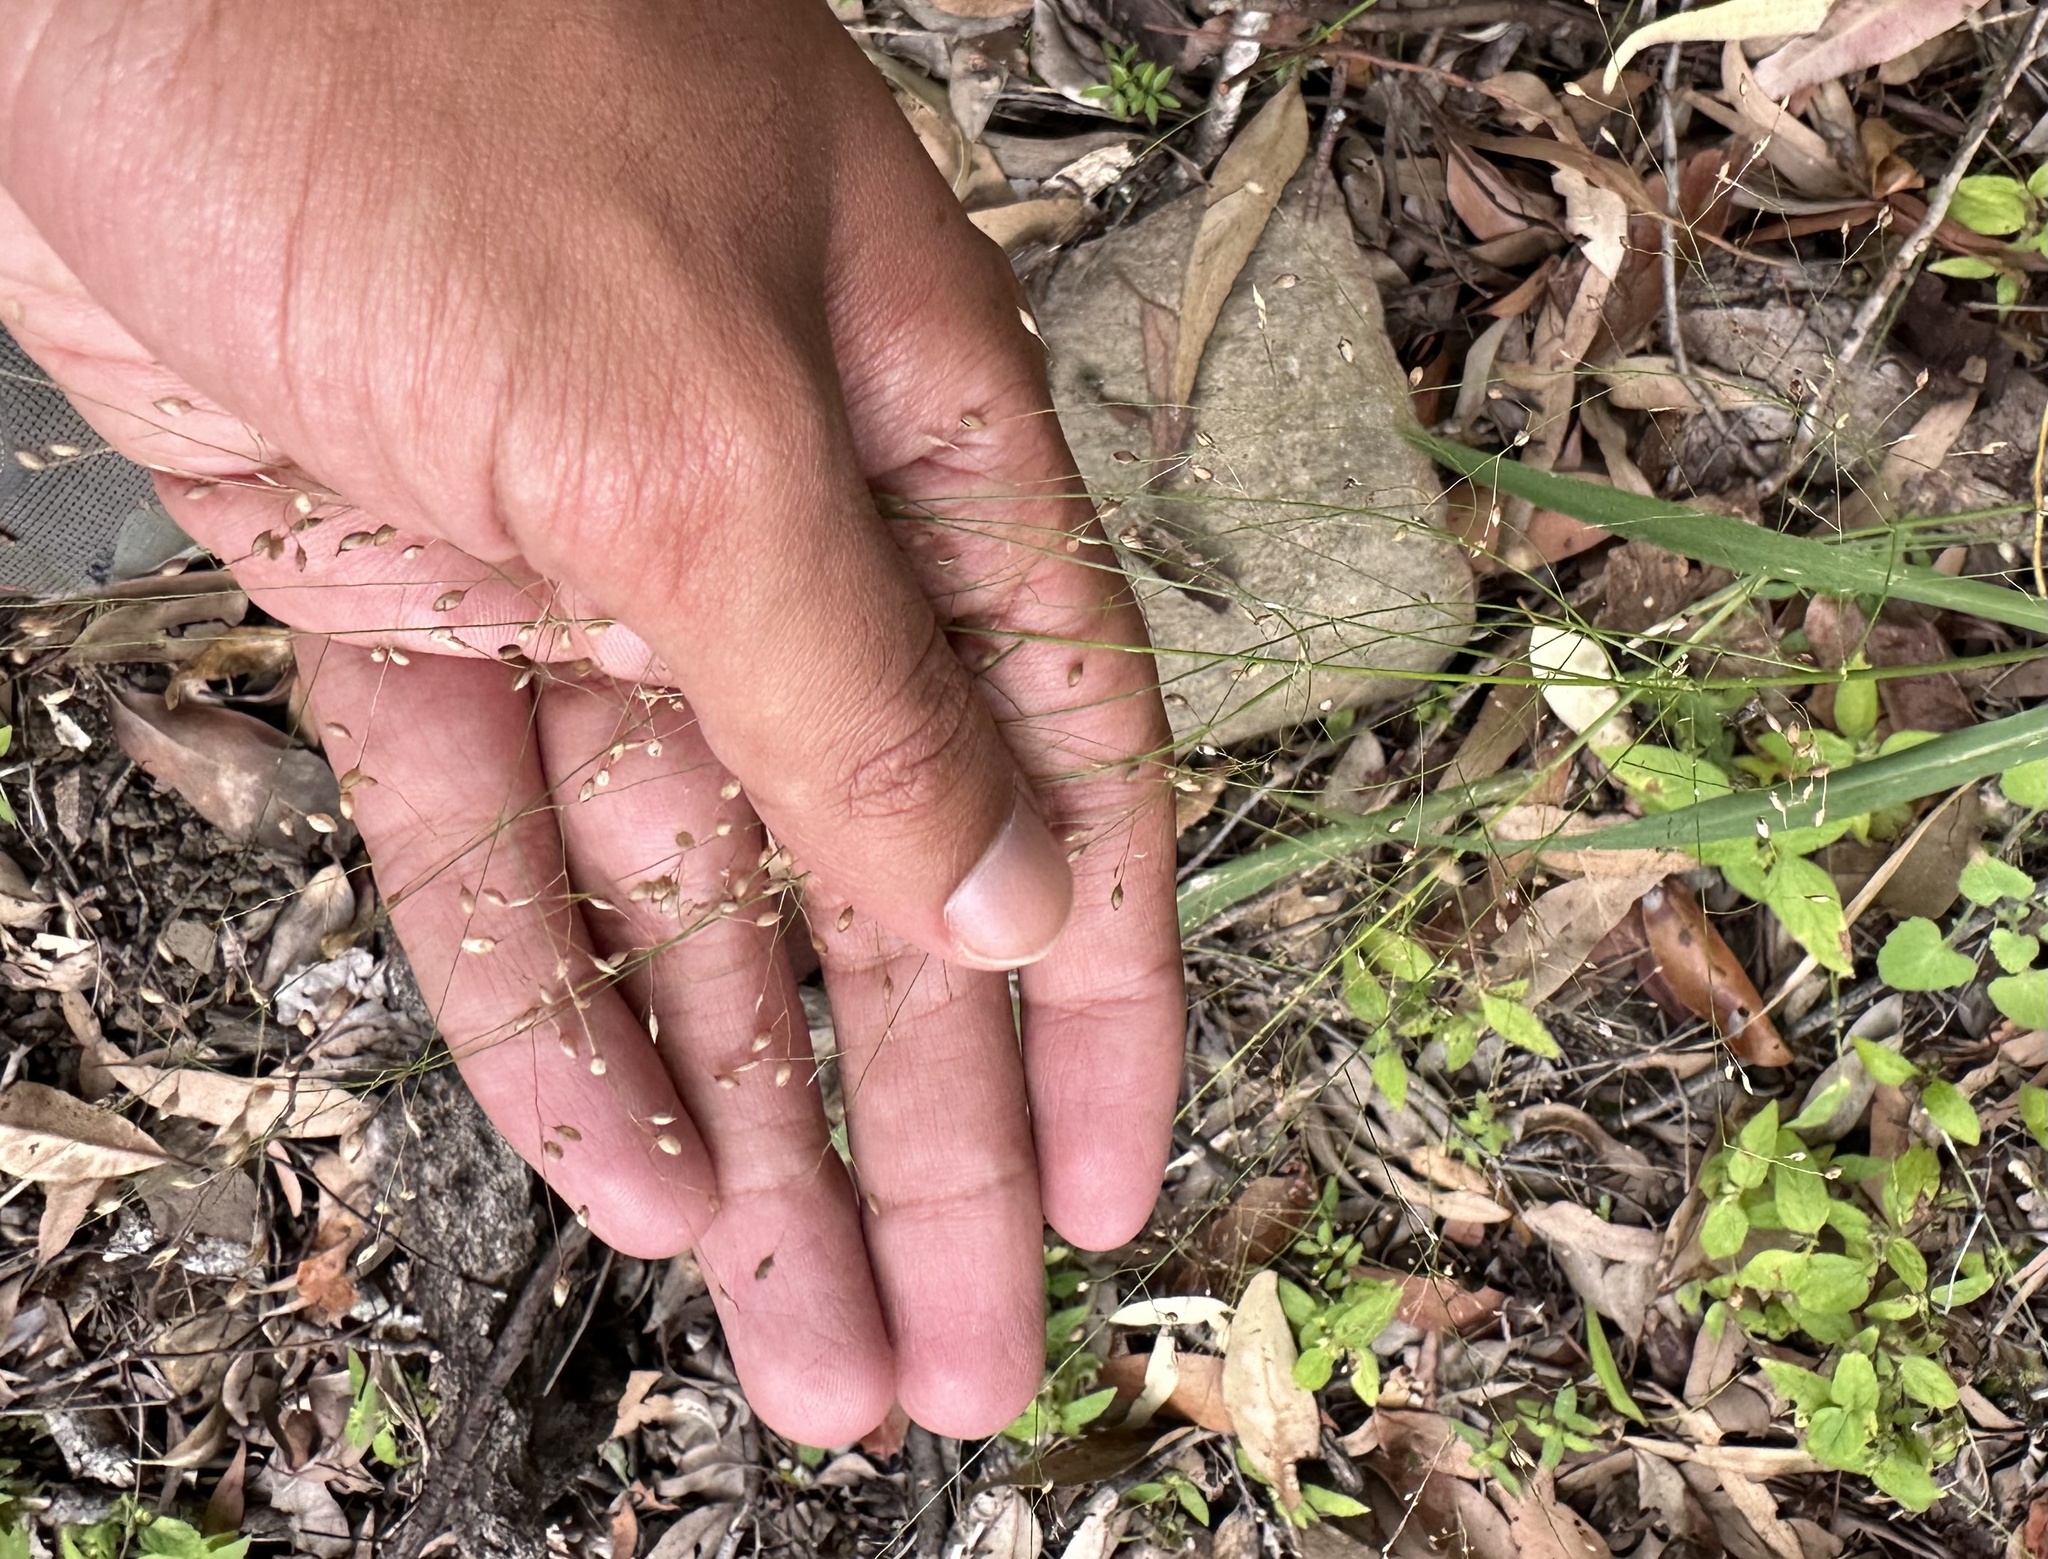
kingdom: Plantae
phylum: Tracheophyta
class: Liliopsida
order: Poales
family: Poaceae
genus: Panicum
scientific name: Panicum trachyrhachis
